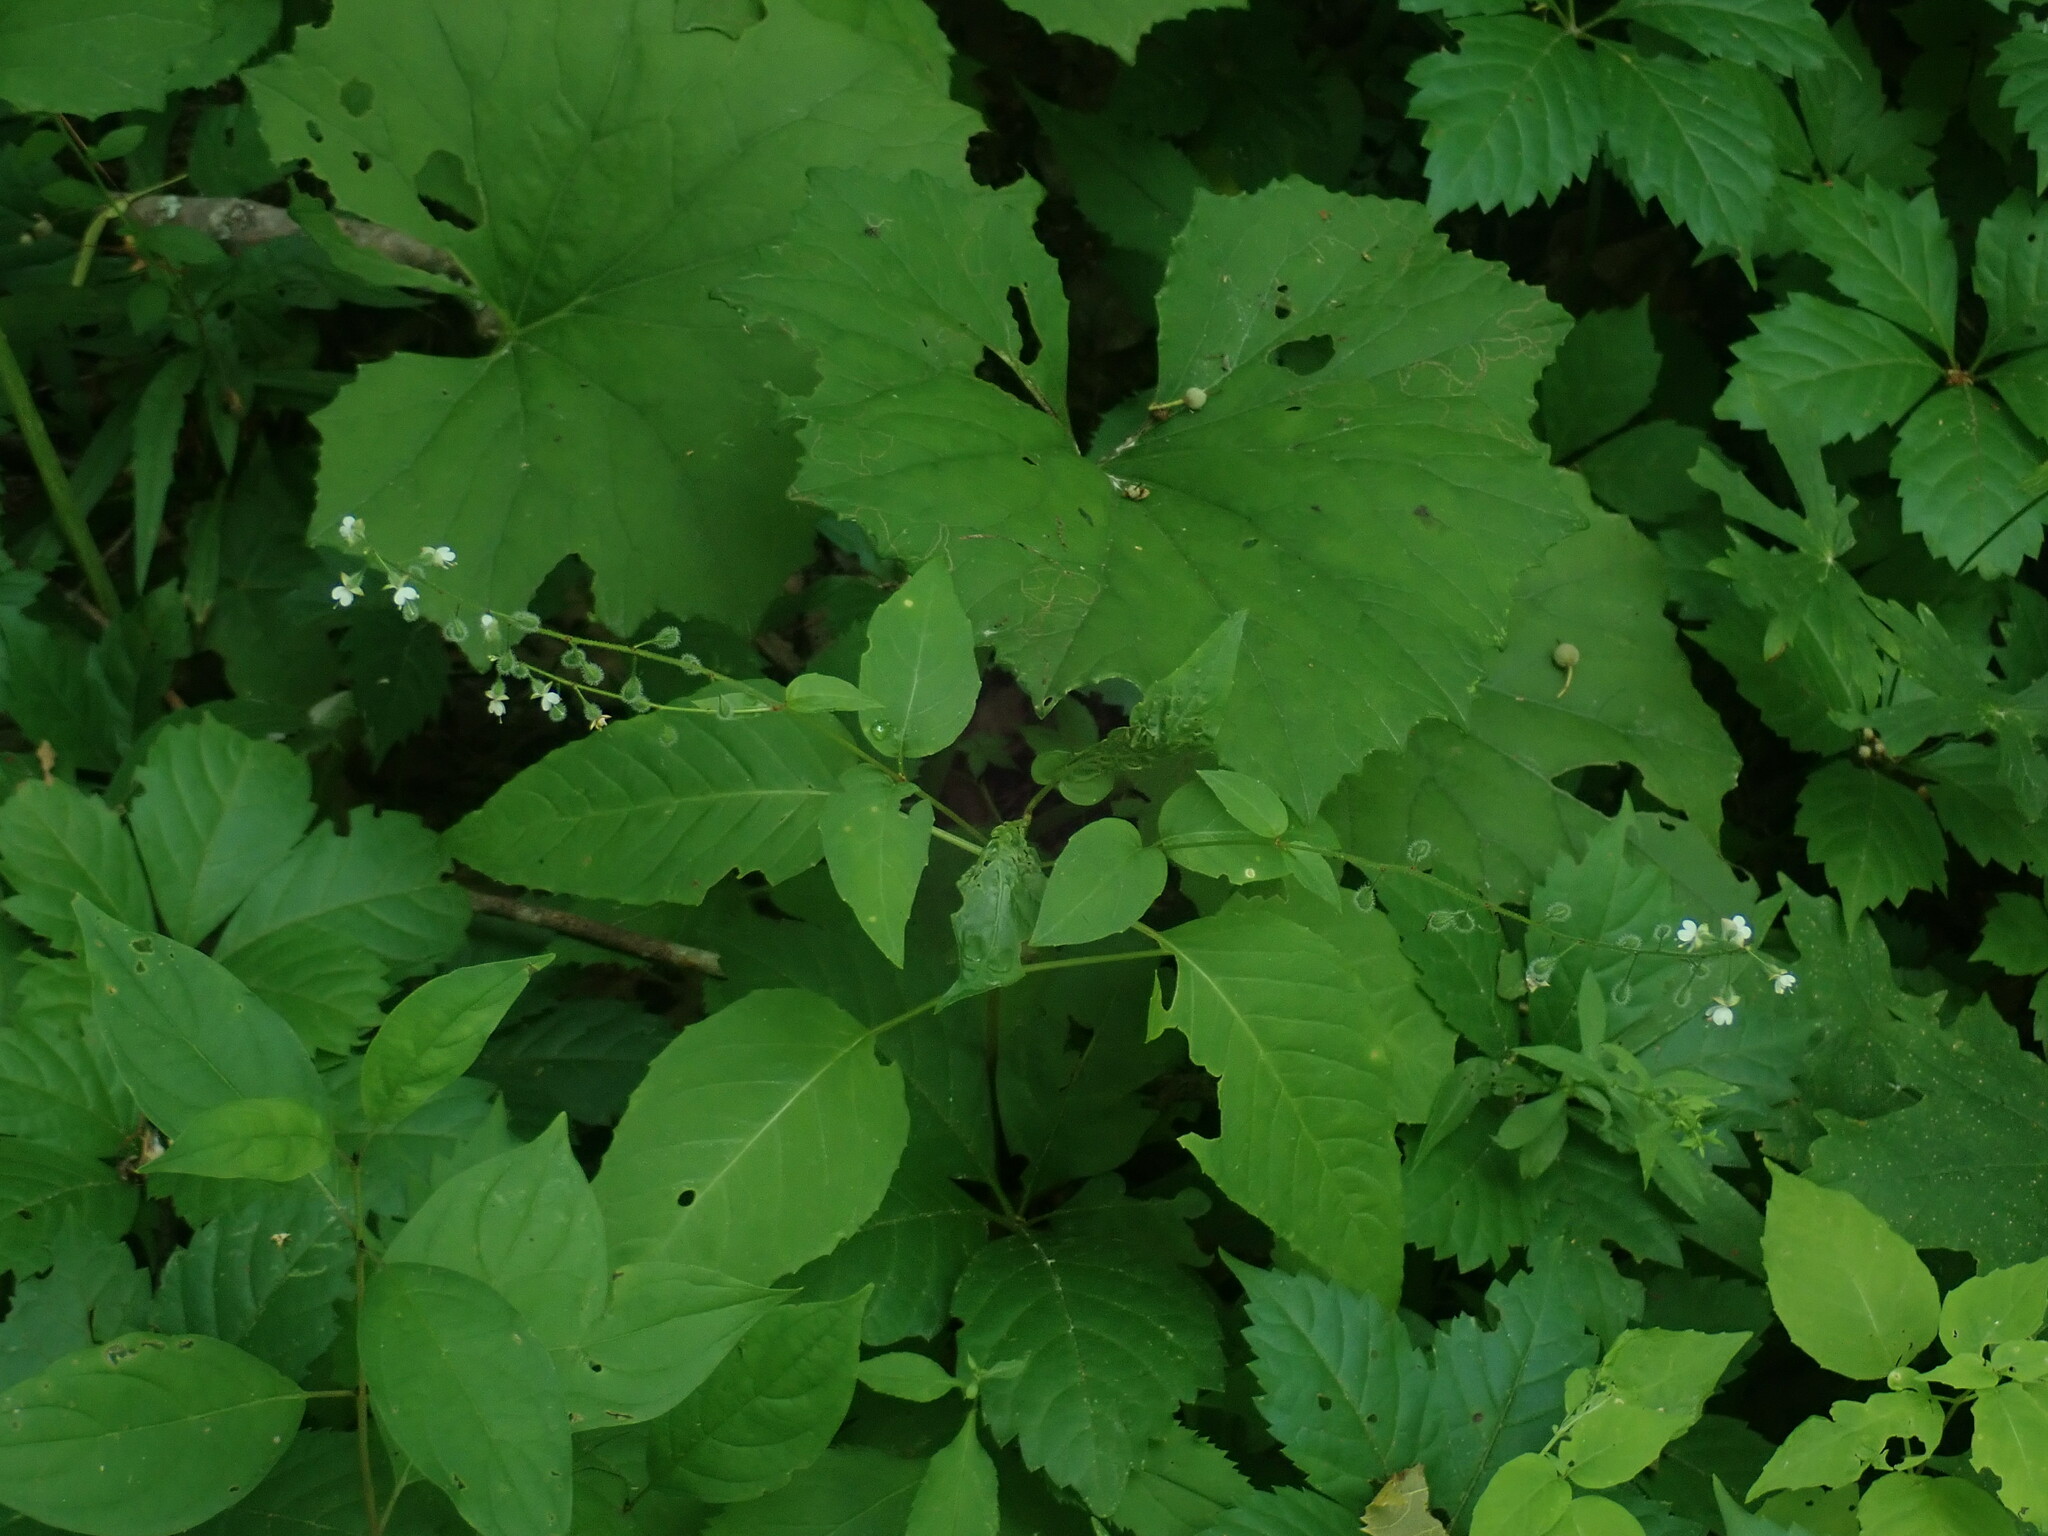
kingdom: Plantae
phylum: Tracheophyta
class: Magnoliopsida
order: Myrtales
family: Onagraceae
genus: Circaea
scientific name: Circaea canadensis
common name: Broad-leaved enchanter's nightshade
